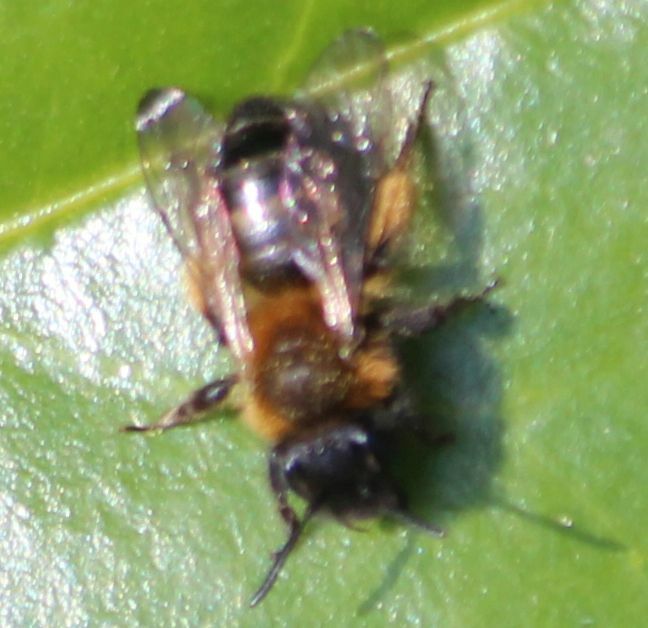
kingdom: Animalia
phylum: Arthropoda
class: Insecta
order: Hymenoptera
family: Andrenidae
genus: Andrena
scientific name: Andrena bicolor
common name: Gwynne's mining bee
